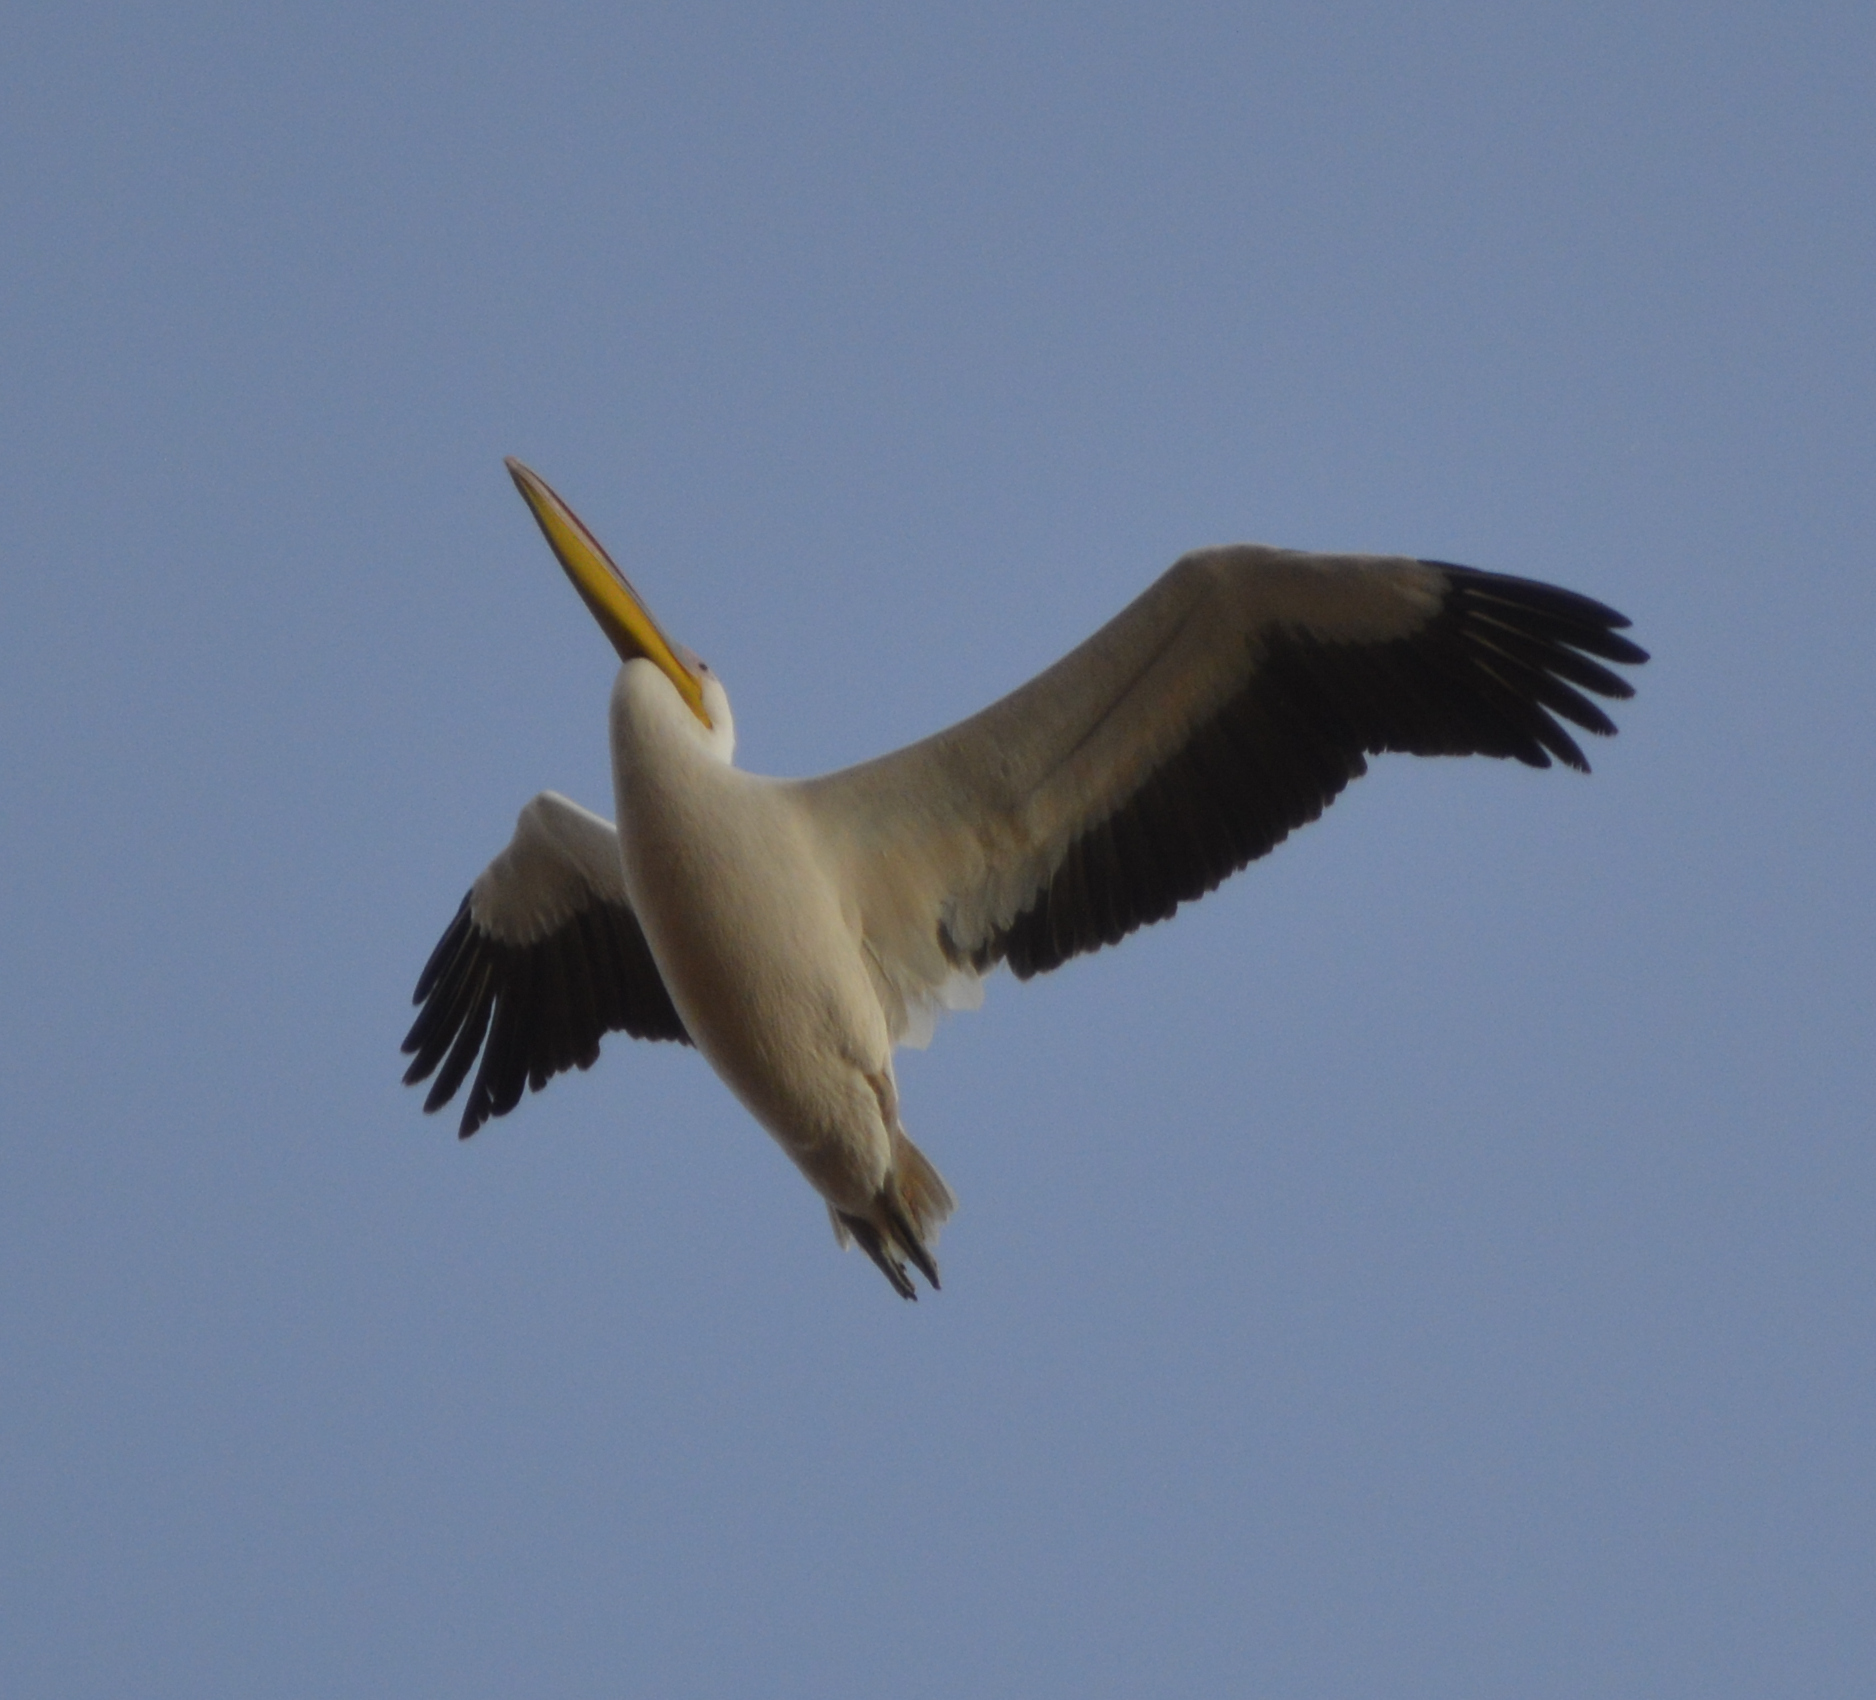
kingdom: Animalia
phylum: Chordata
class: Aves
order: Pelecaniformes
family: Pelecanidae
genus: Pelecanus
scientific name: Pelecanus onocrotalus
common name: Great white pelican
